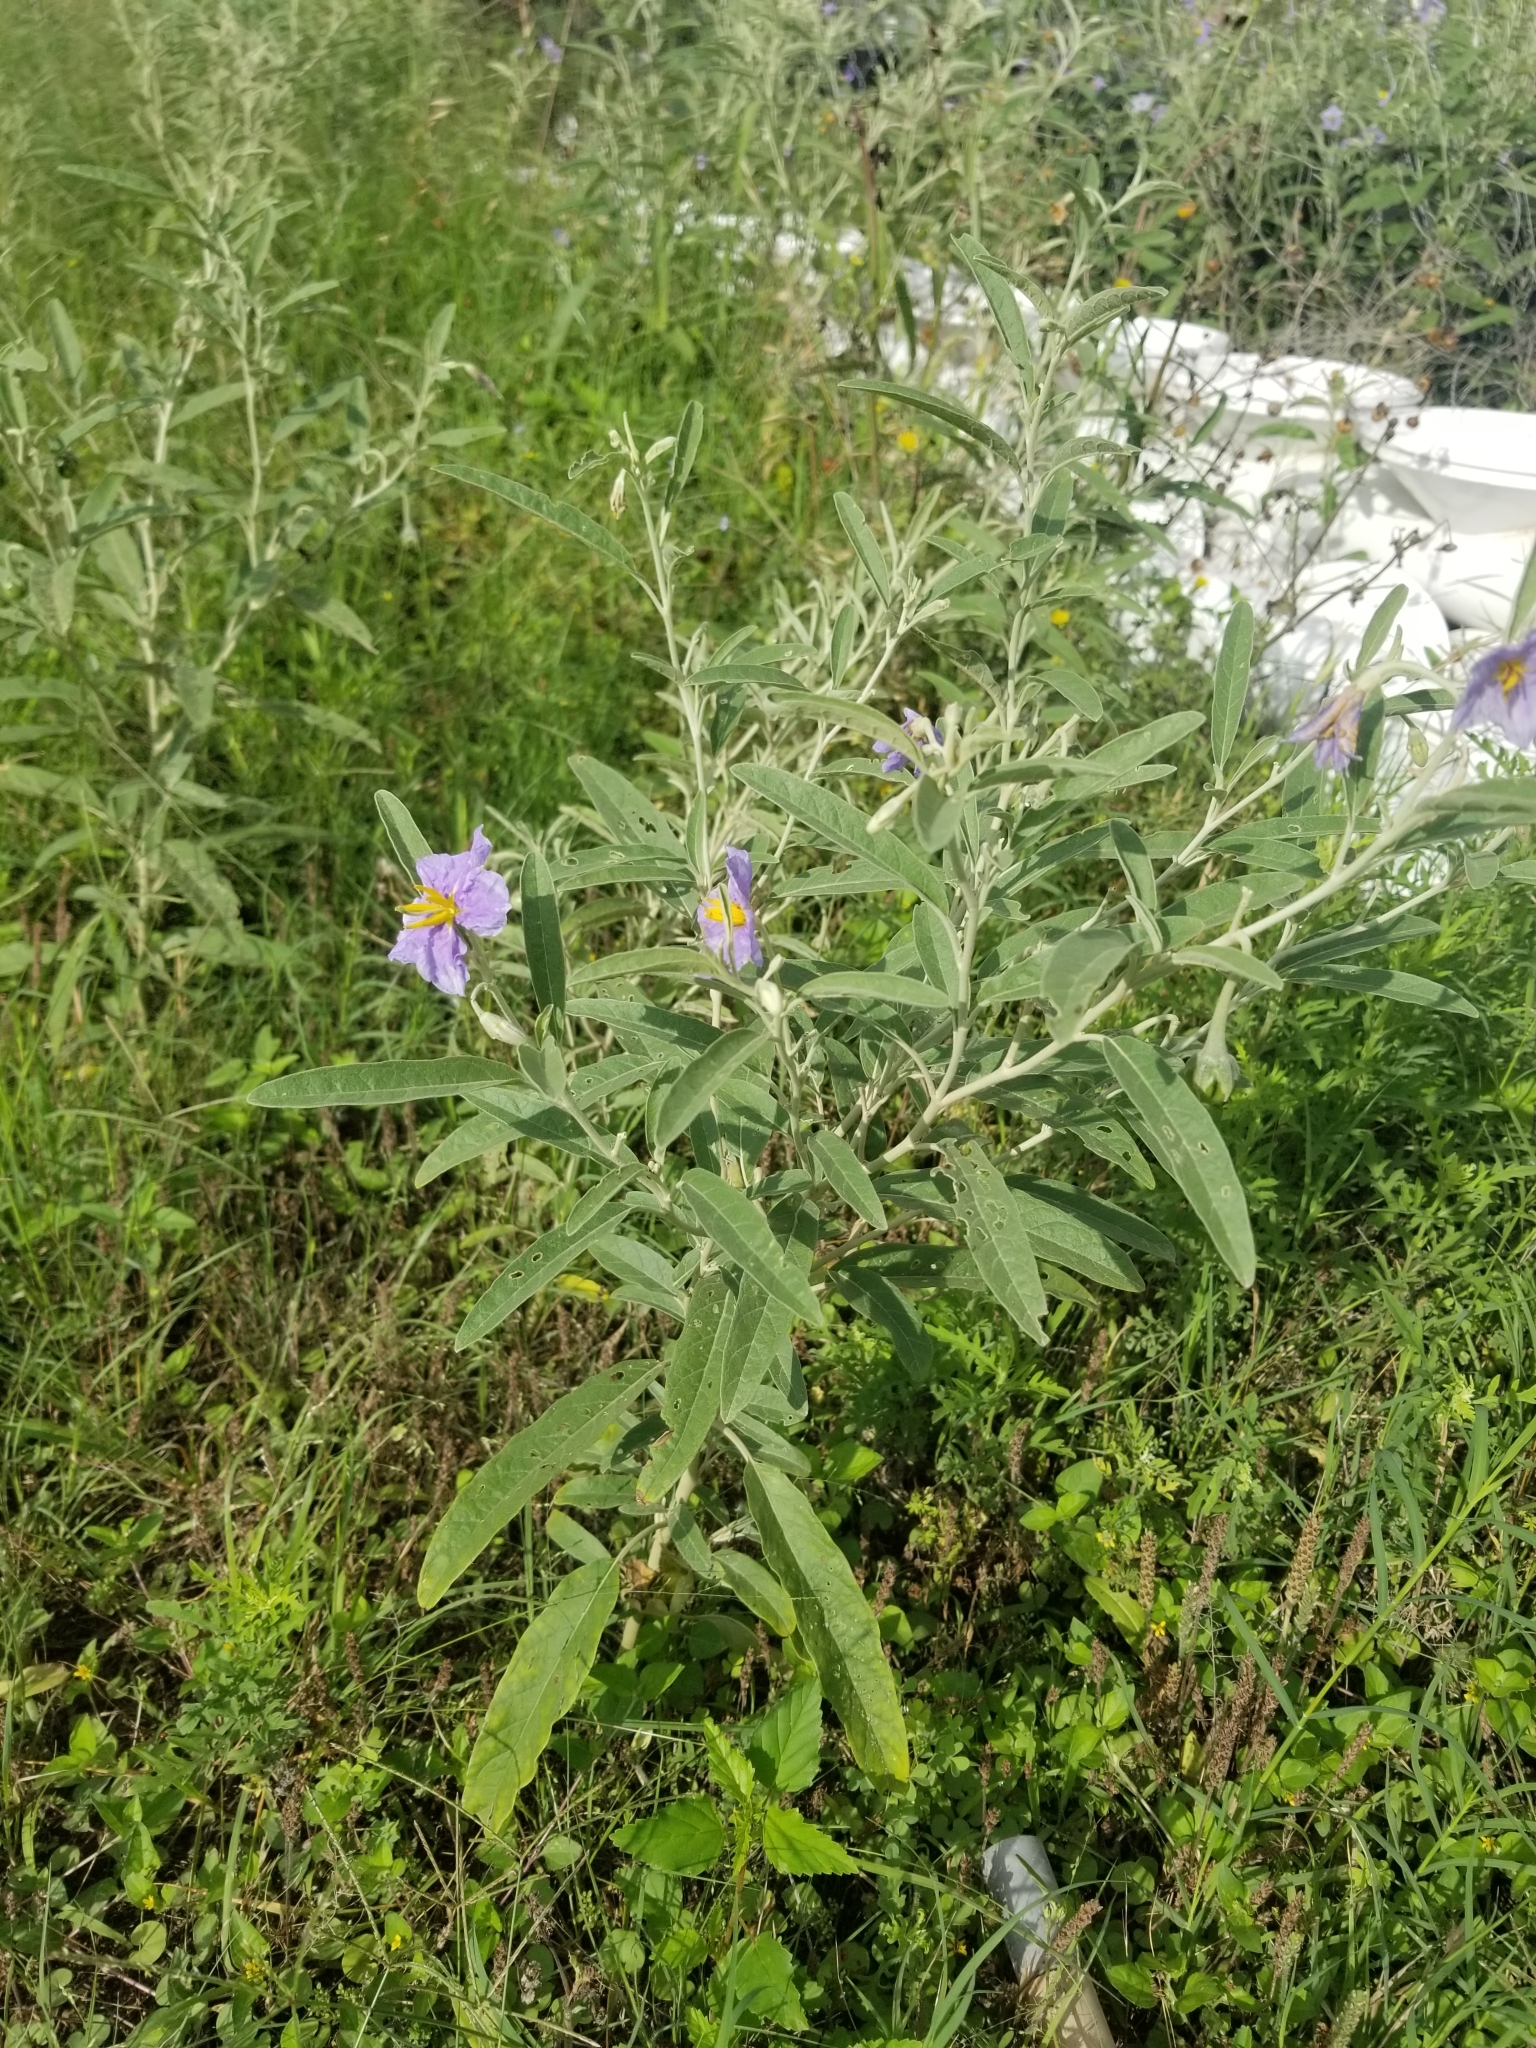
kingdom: Plantae
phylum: Tracheophyta
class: Magnoliopsida
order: Solanales
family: Solanaceae
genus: Solanum
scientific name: Solanum elaeagnifolium
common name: Silverleaf nightshade
